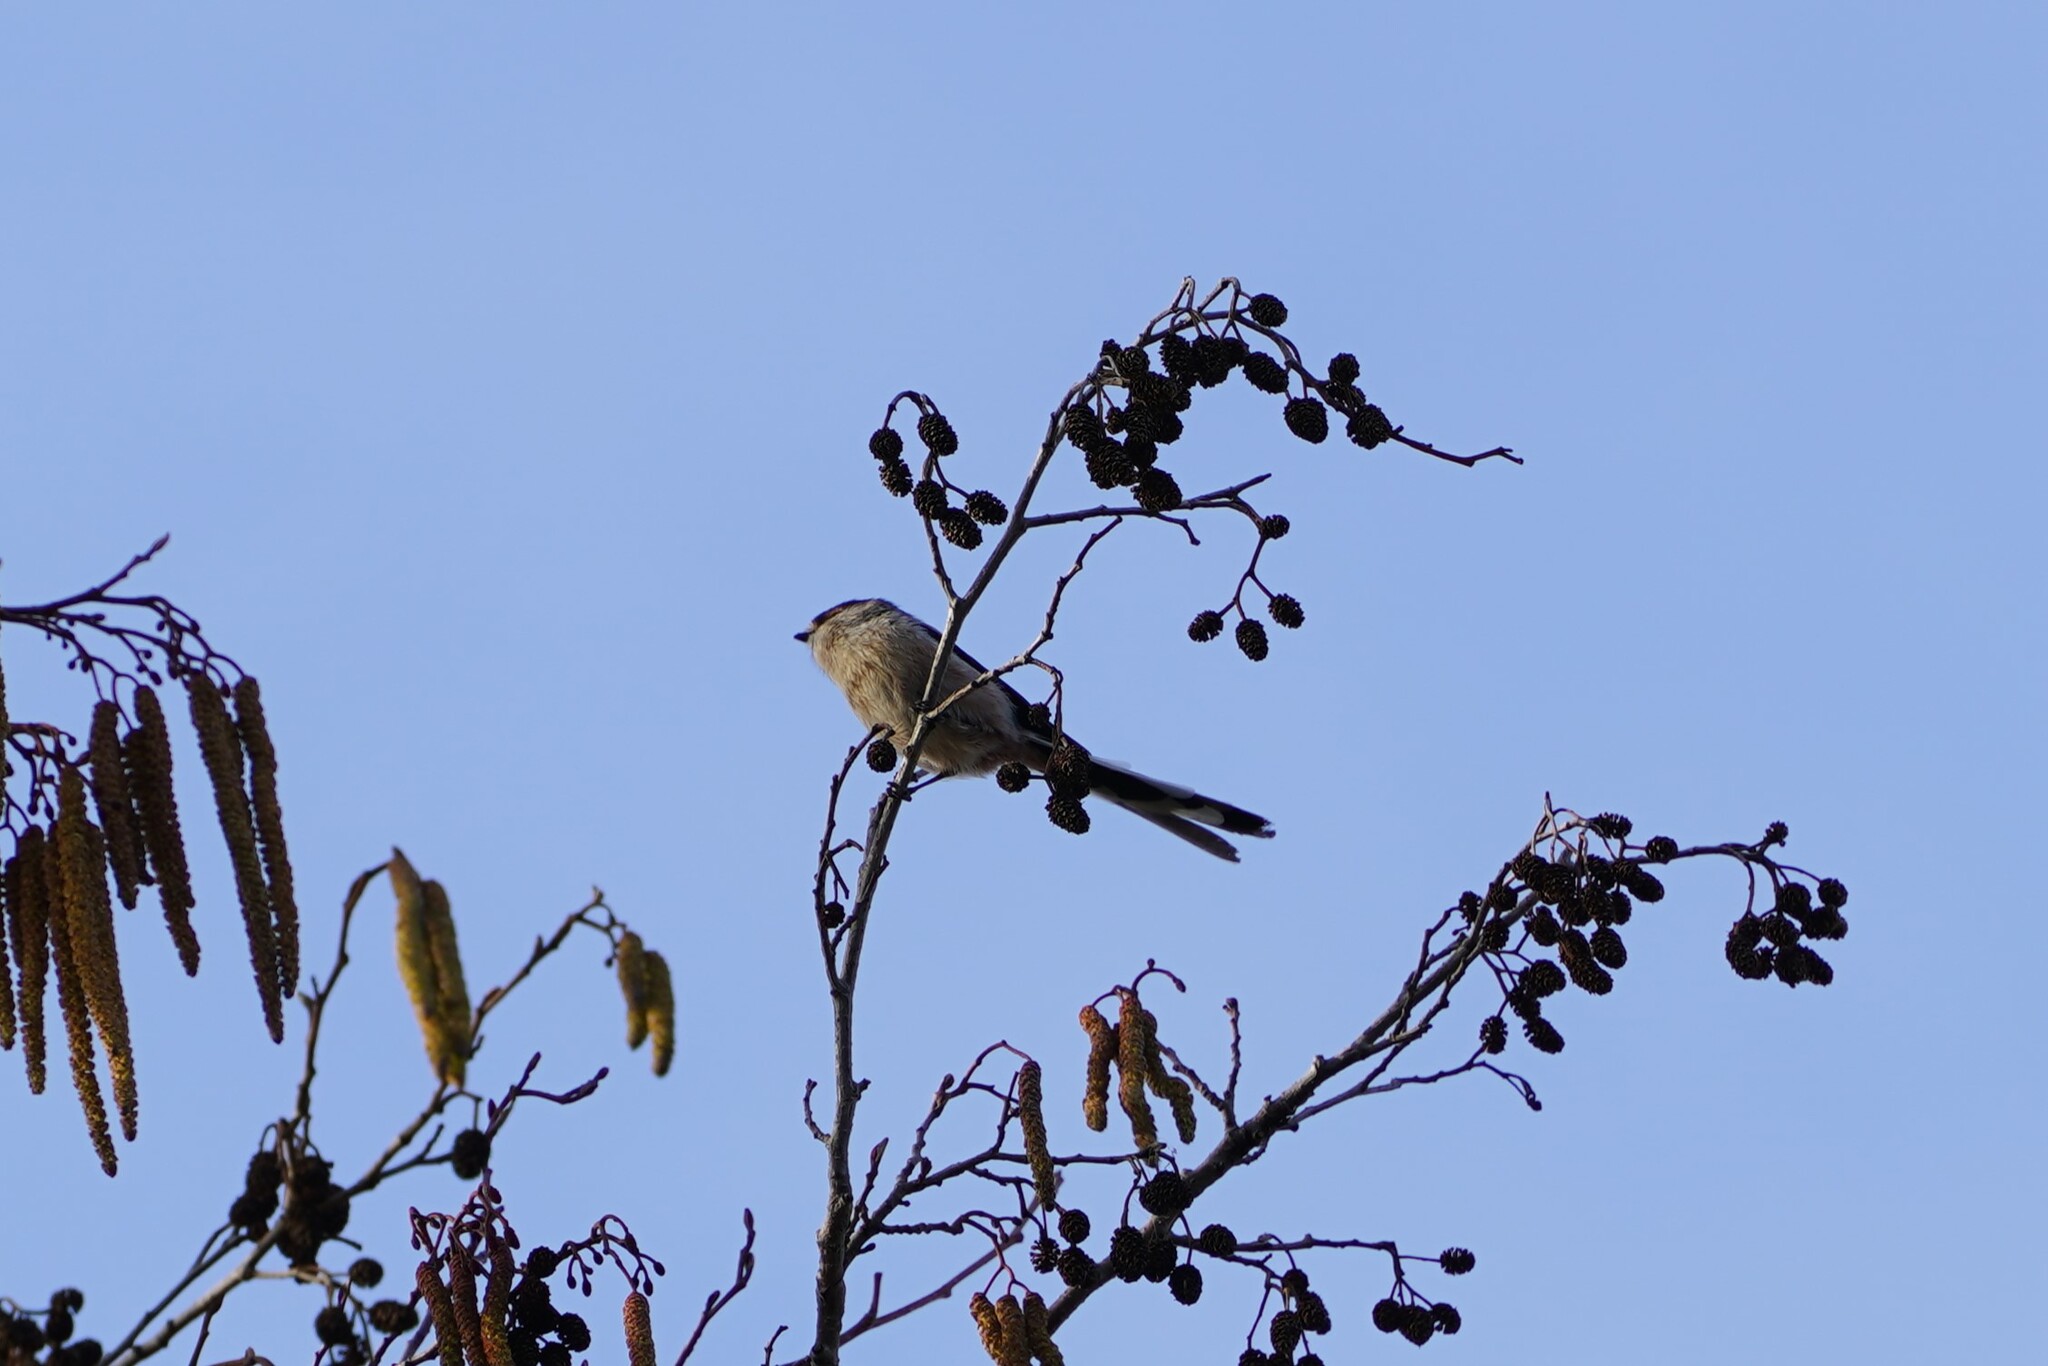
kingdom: Animalia
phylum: Chordata
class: Aves
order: Passeriformes
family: Aegithalidae
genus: Aegithalos
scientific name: Aegithalos caudatus
